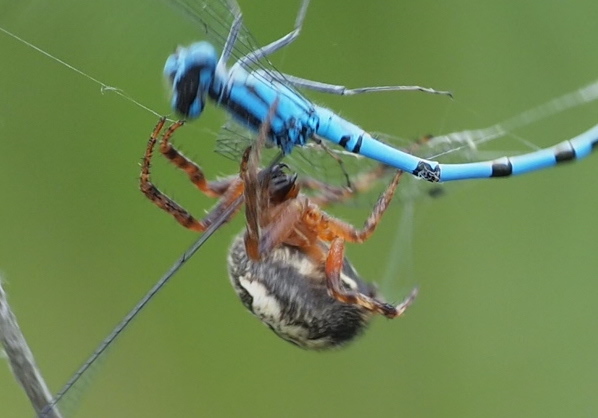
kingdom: Animalia
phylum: Arthropoda
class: Arachnida
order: Araneae
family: Araneidae
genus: Larinioides
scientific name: Larinioides patagiatus
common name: Ornamental orbweaver
